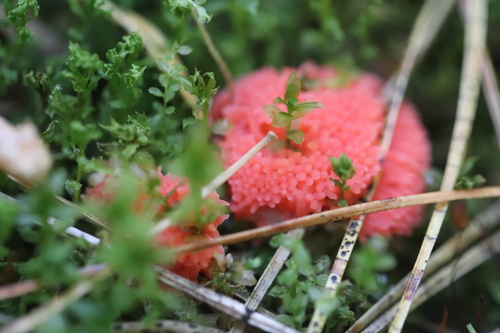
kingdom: Protozoa
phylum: Mycetozoa
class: Myxomycetes
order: Cribrariales
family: Tubiferaceae
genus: Tubifera
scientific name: Tubifera
